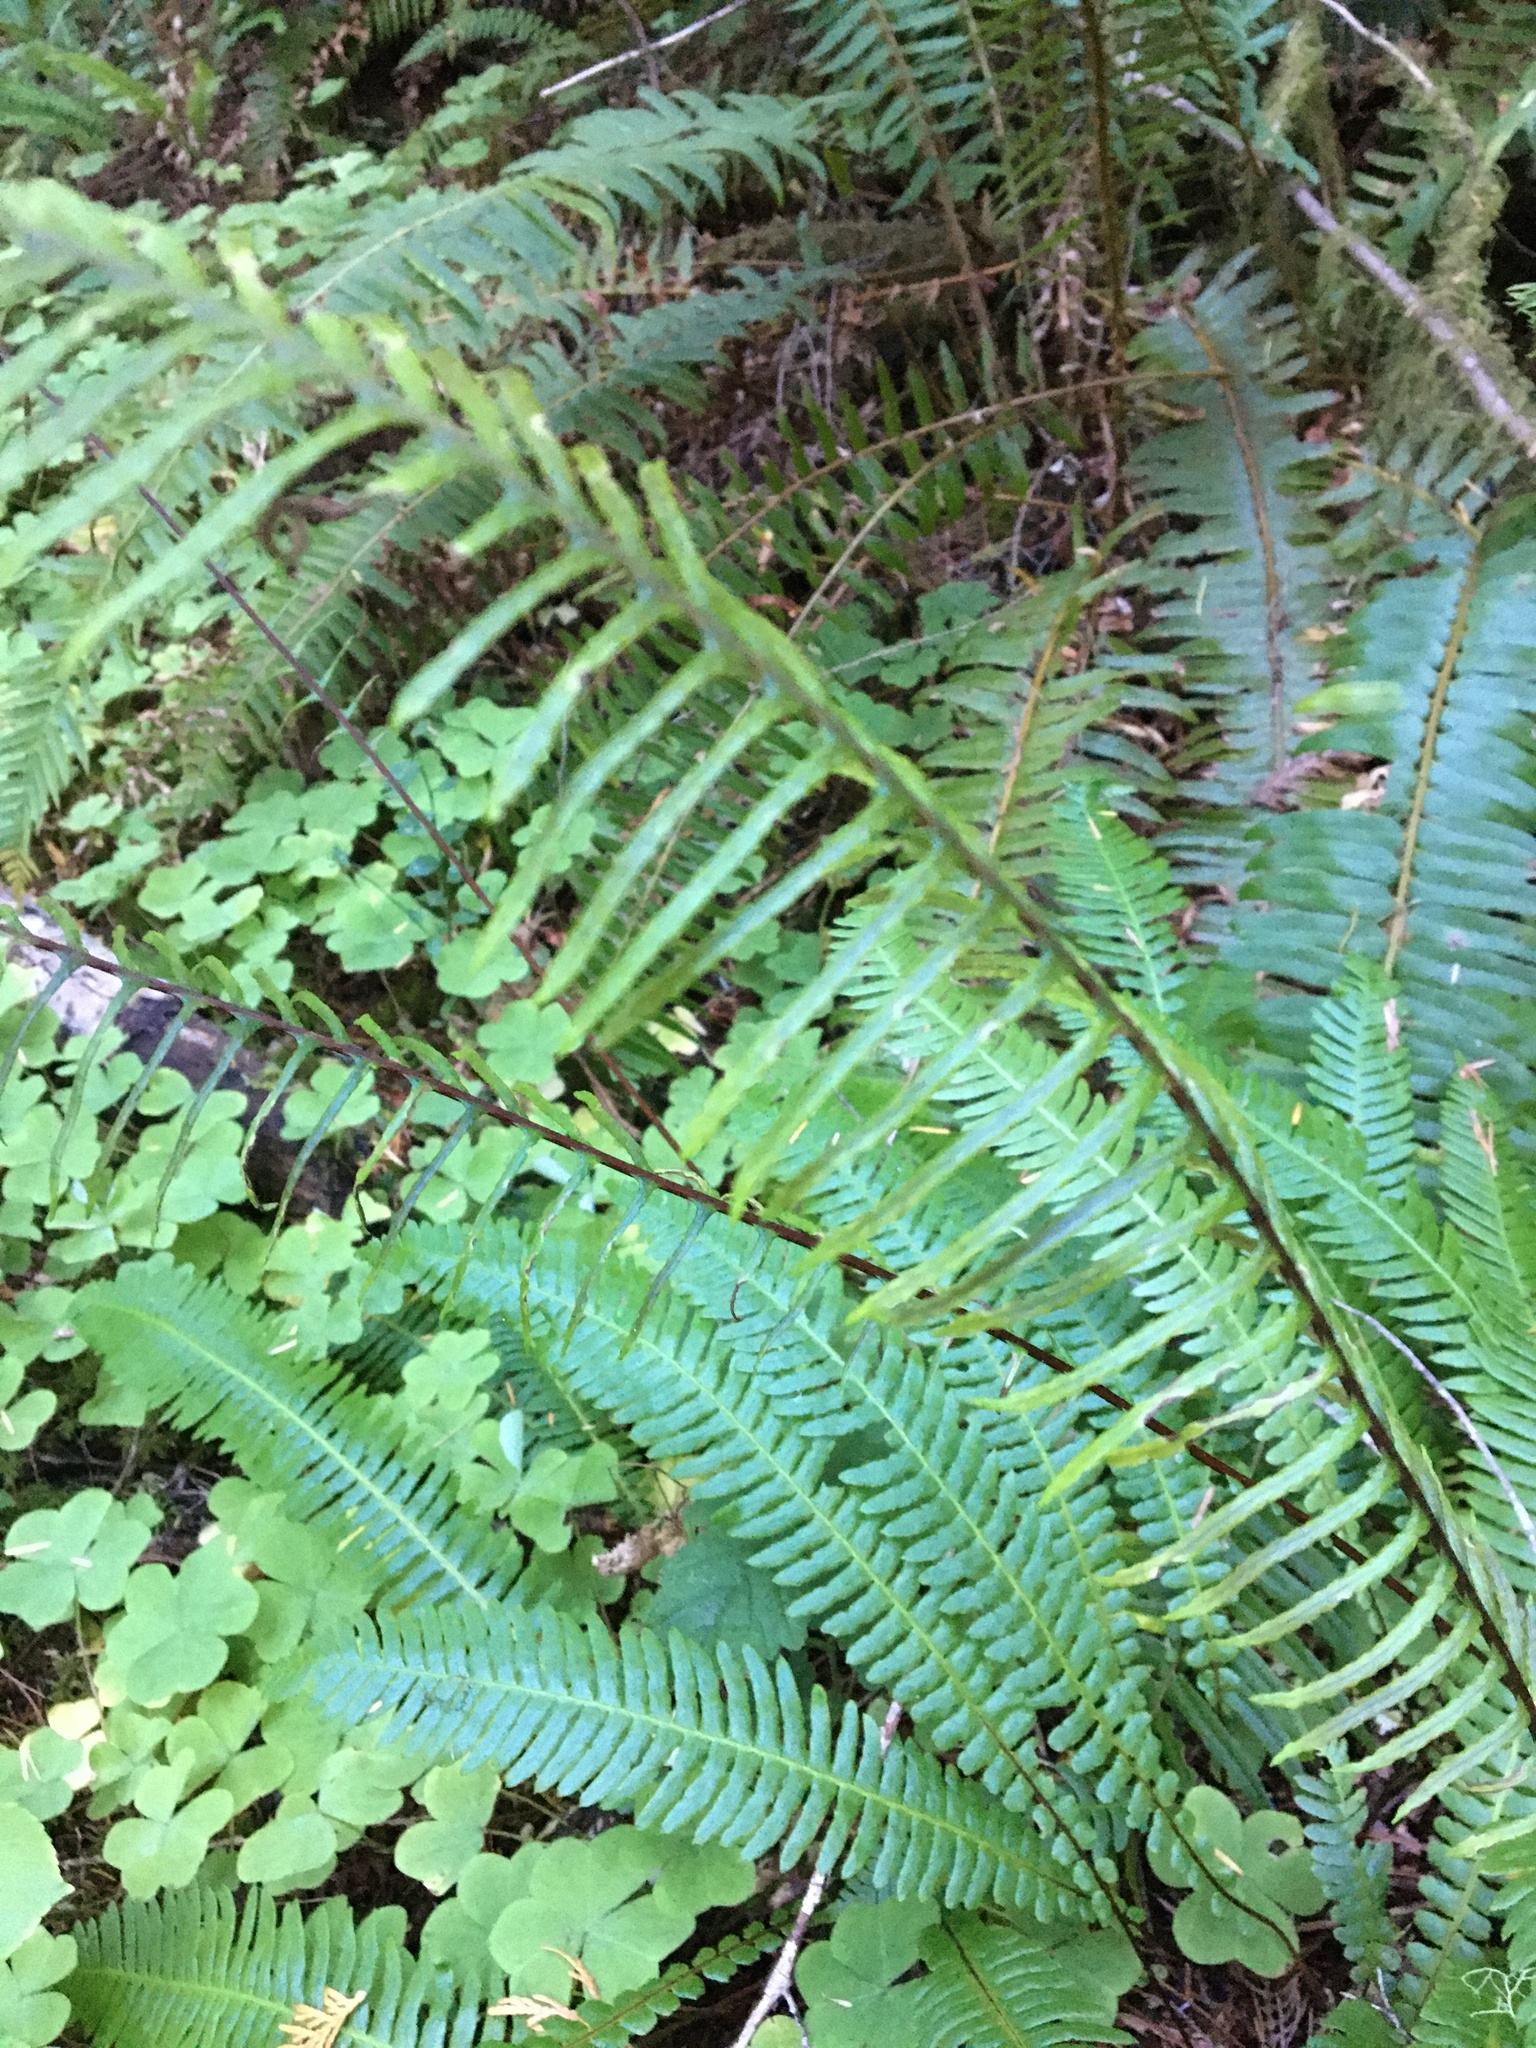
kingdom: Plantae
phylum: Tracheophyta
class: Polypodiopsida
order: Polypodiales
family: Blechnaceae
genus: Struthiopteris
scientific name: Struthiopteris spicant
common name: Deer fern
